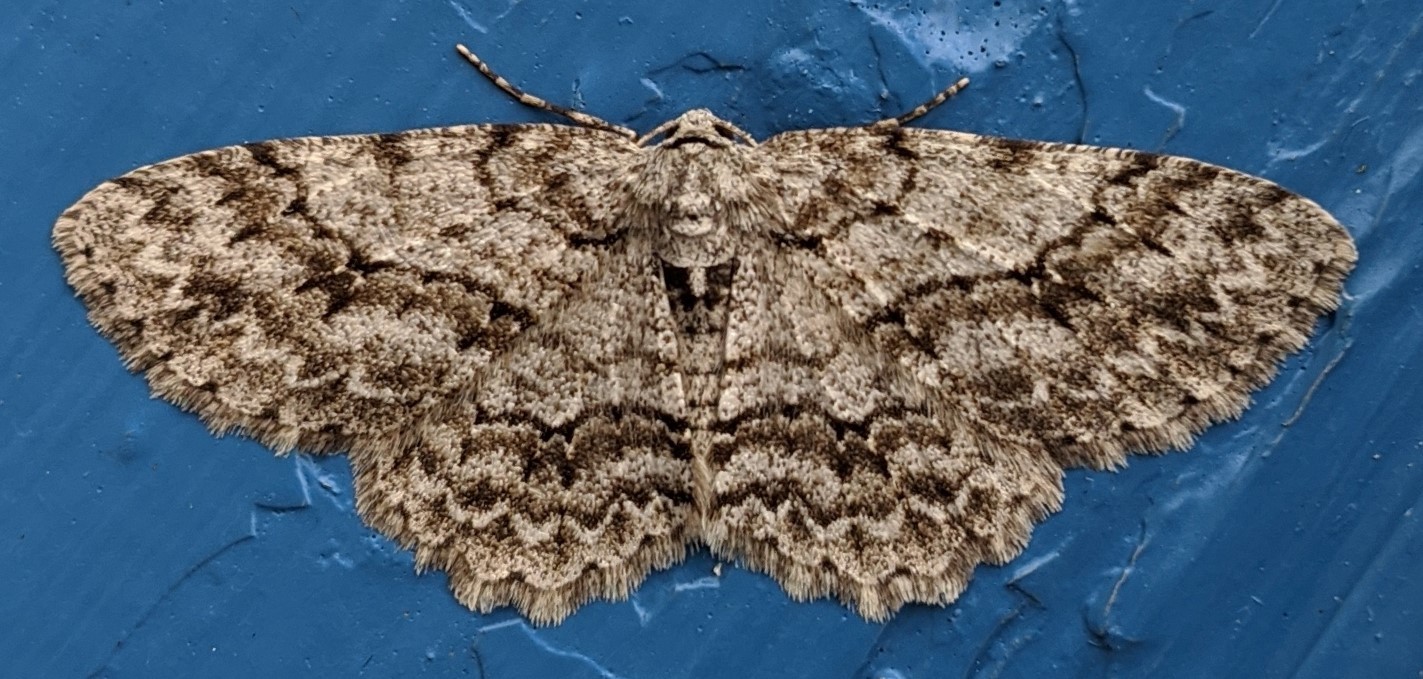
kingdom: Animalia
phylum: Arthropoda
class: Insecta
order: Lepidoptera
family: Geometridae
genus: Ectropis
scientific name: Ectropis crepuscularia
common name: Engrailed
